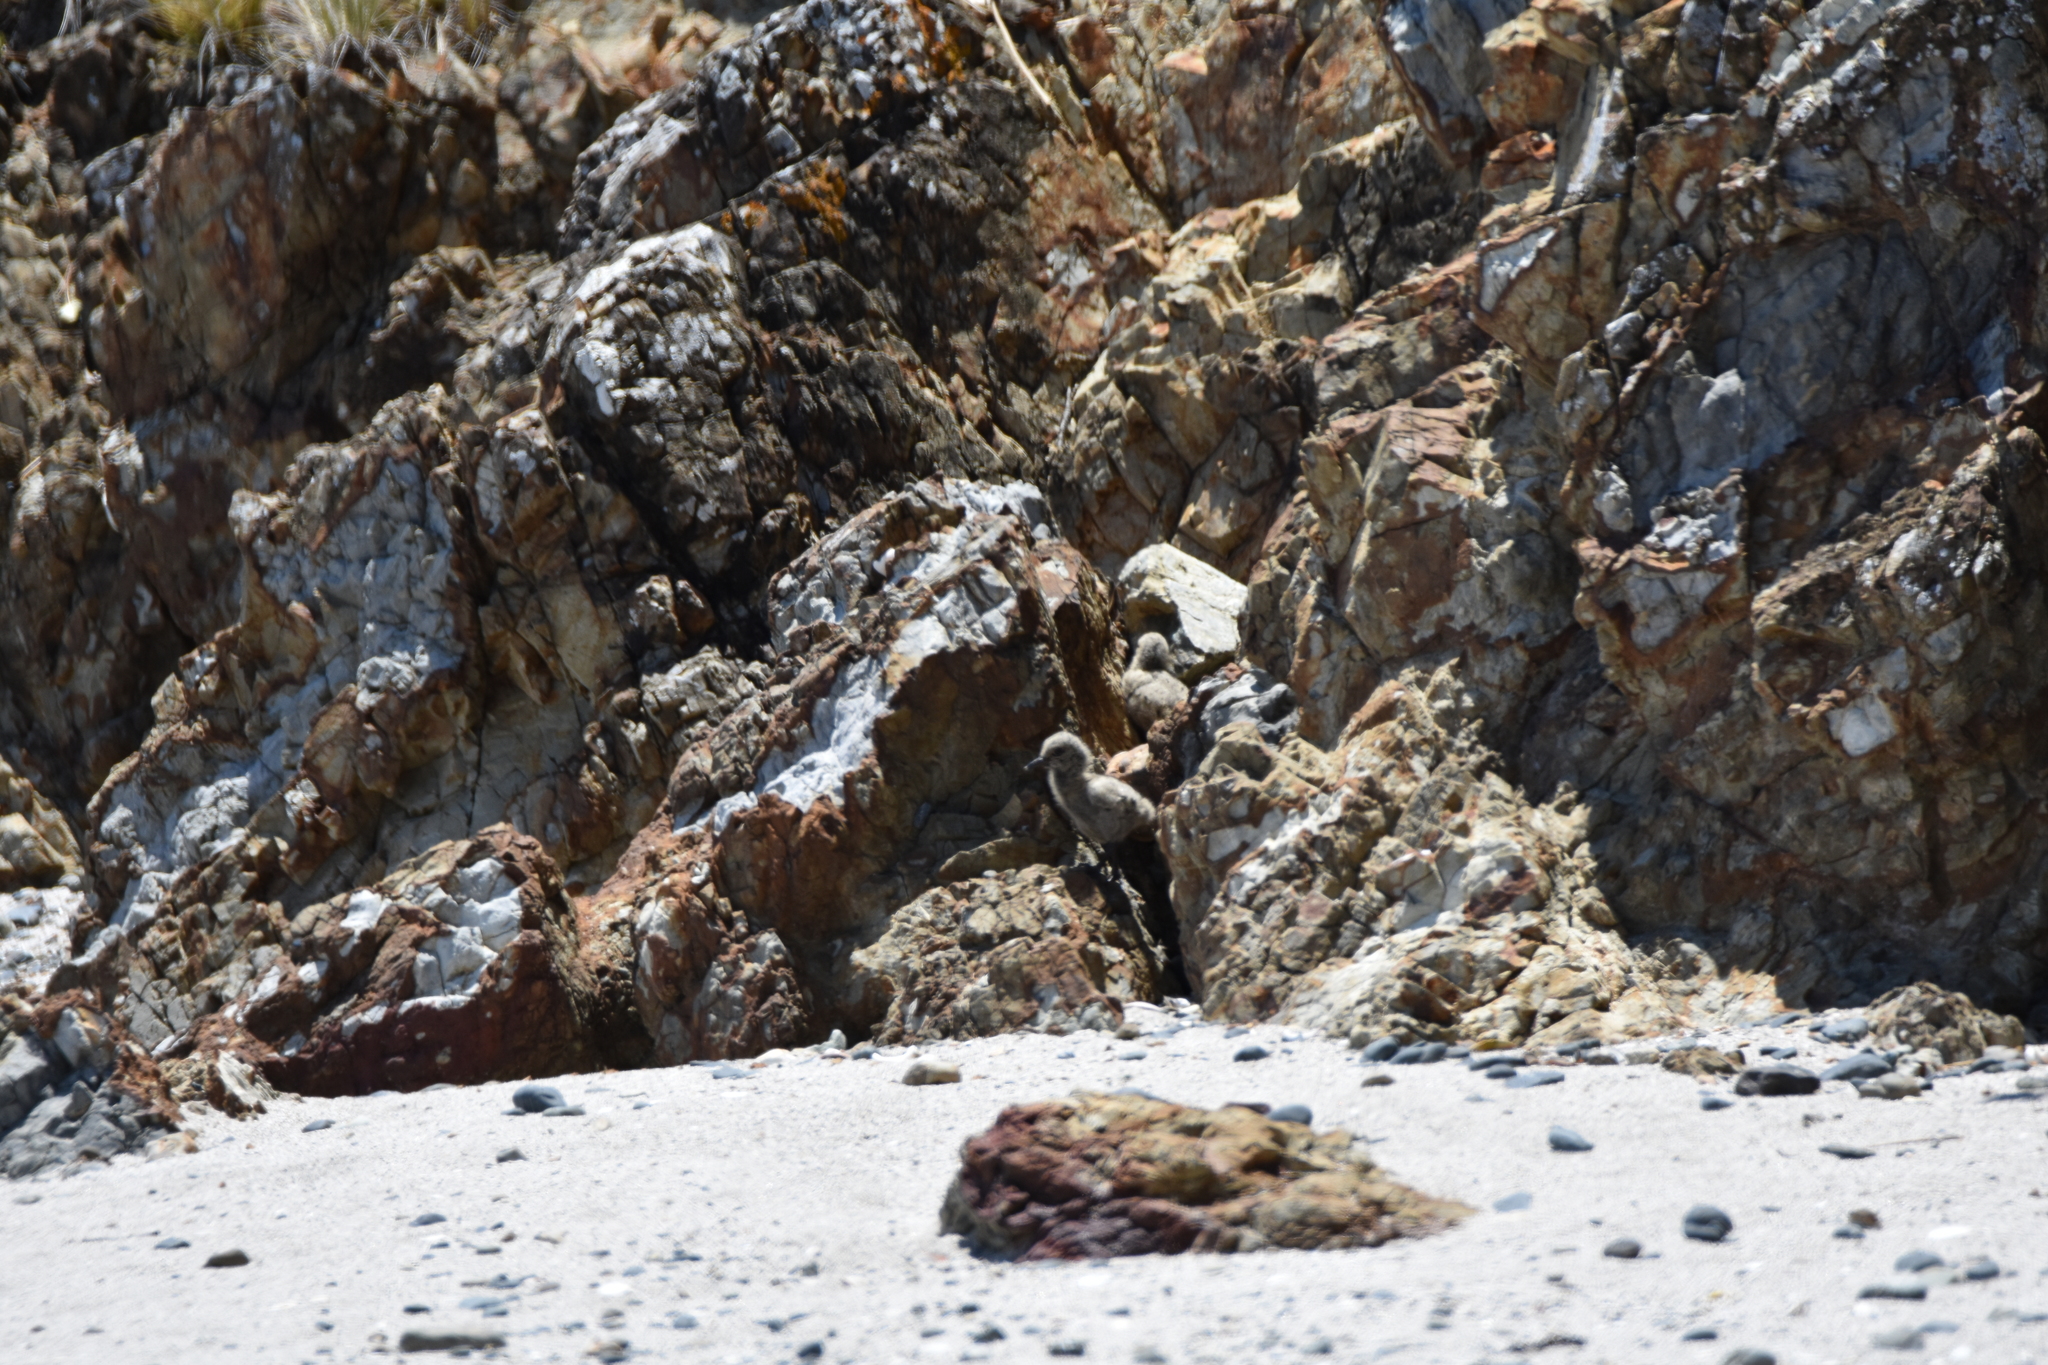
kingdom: Animalia
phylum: Chordata
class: Aves
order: Charadriiformes
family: Haematopodidae
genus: Haematopus
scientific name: Haematopus unicolor
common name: Variable oystercatcher
